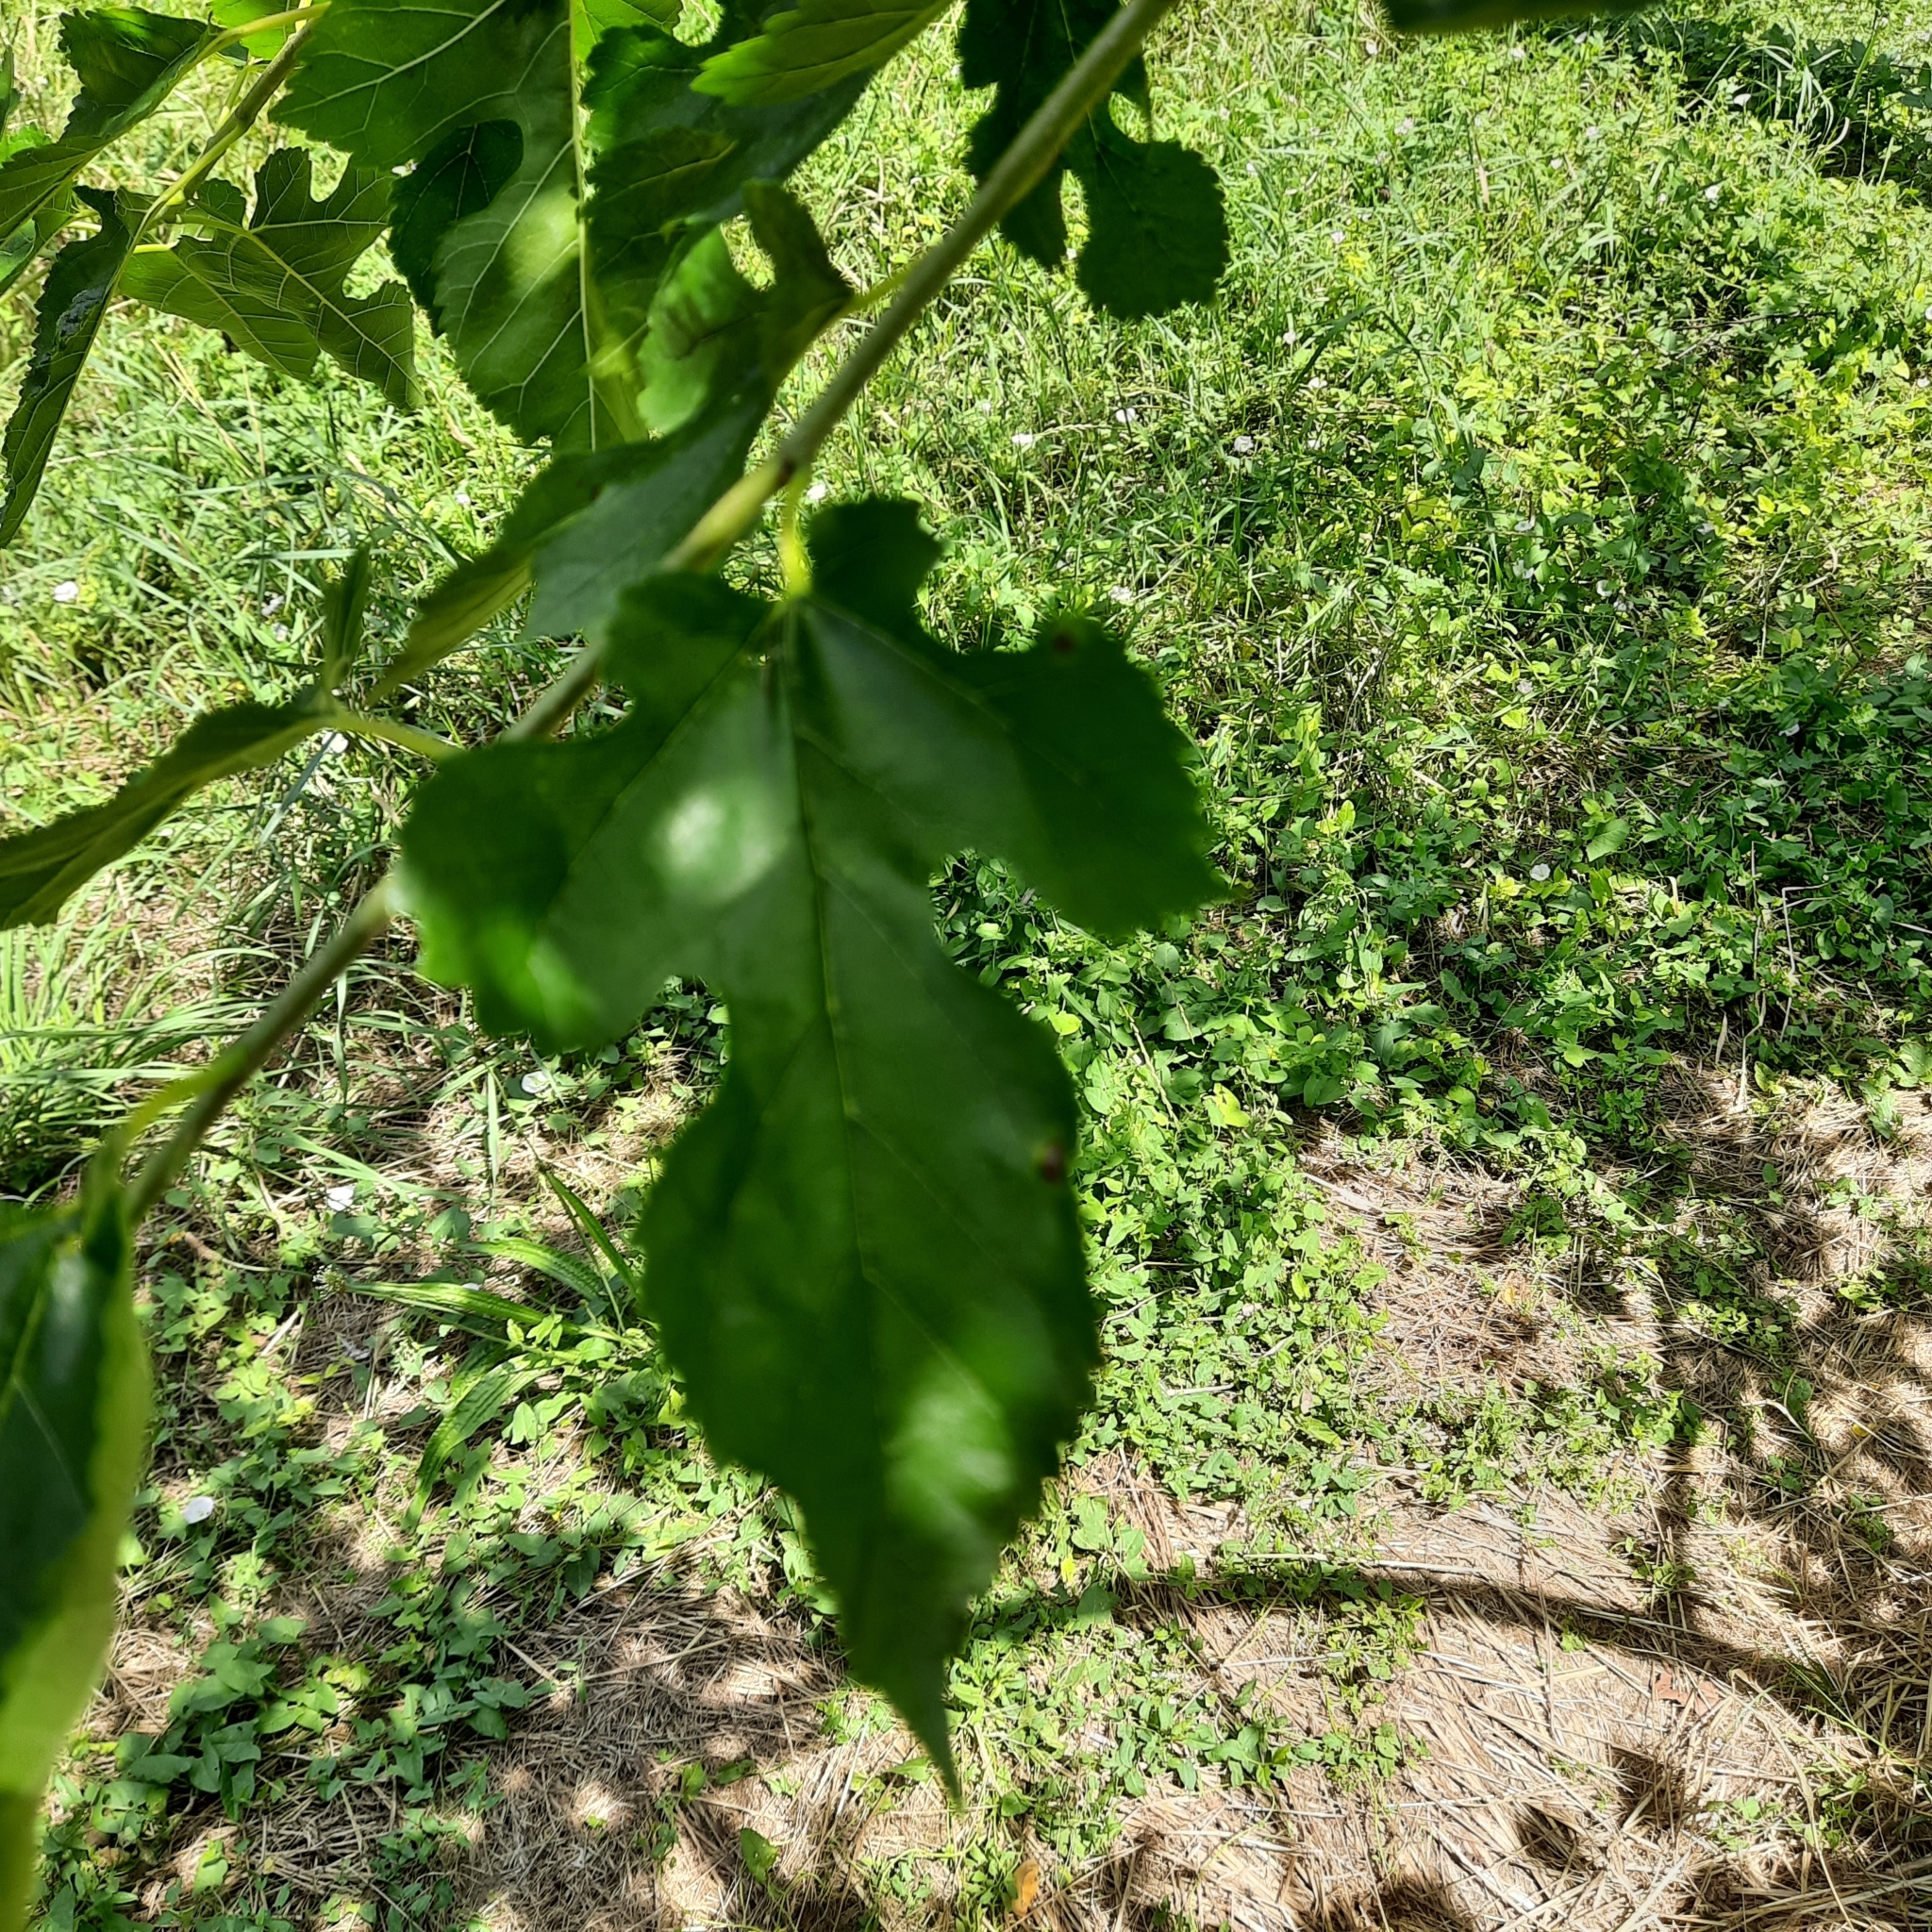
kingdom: Plantae
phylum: Tracheophyta
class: Magnoliopsida
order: Rosales
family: Moraceae
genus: Morus
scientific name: Morus alba
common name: White mulberry
